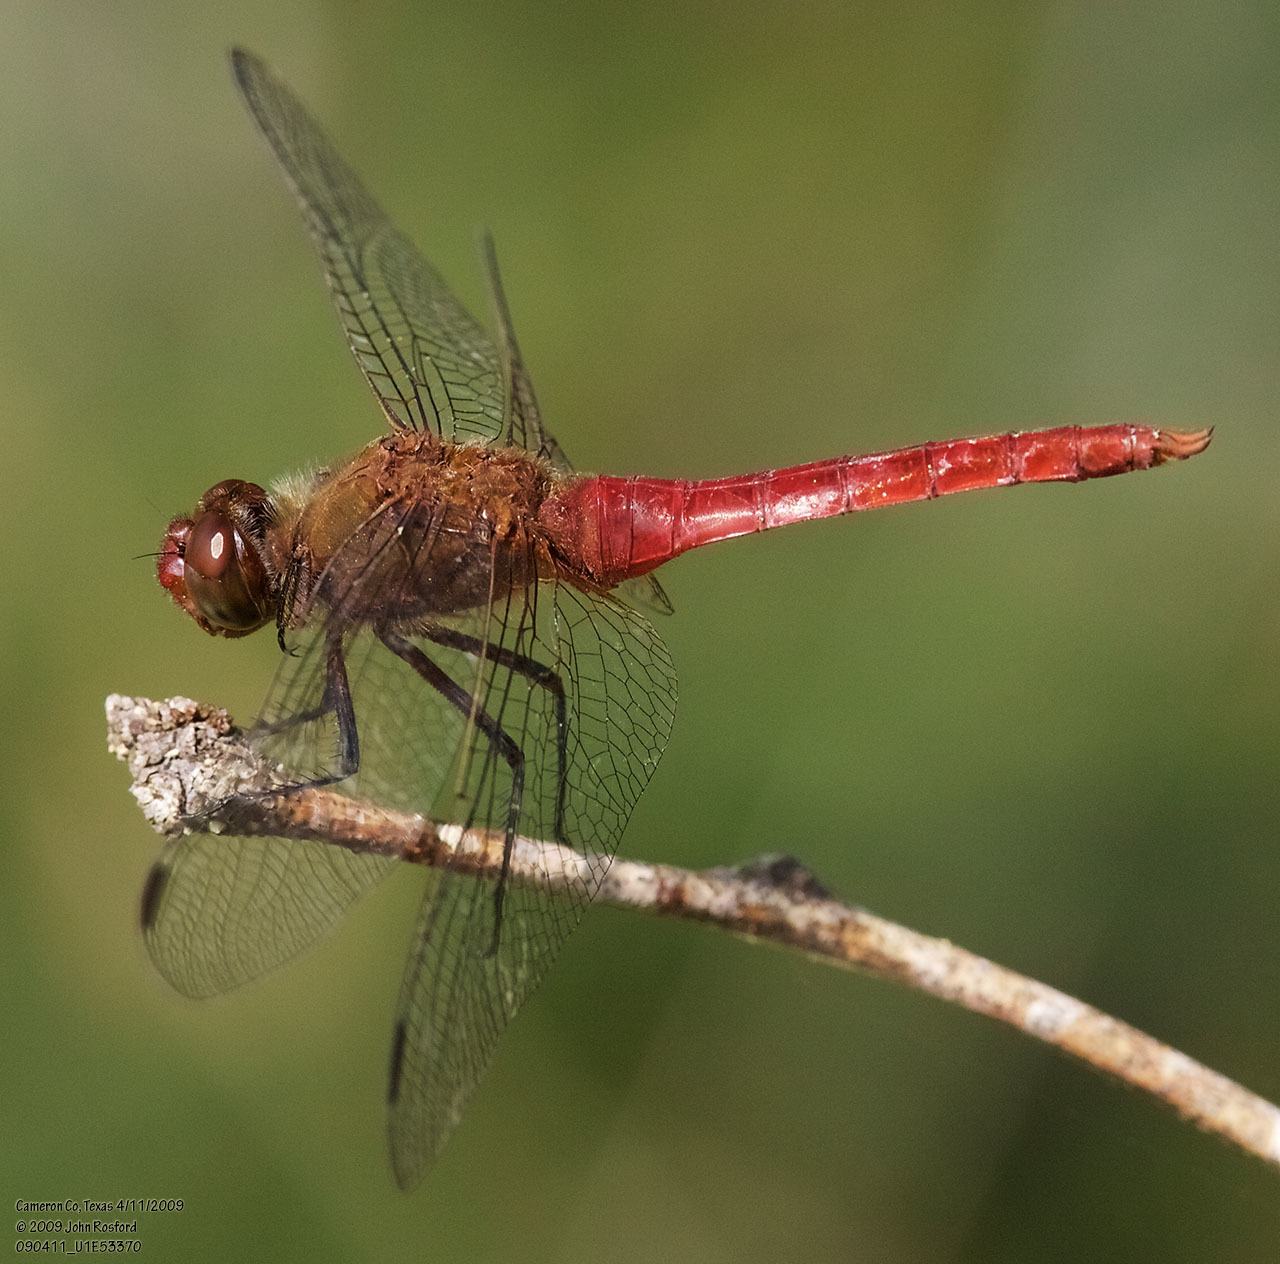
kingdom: Animalia
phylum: Arthropoda
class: Insecta
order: Odonata
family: Libellulidae
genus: Brachymesia
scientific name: Brachymesia furcata
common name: Red-taled pennant
